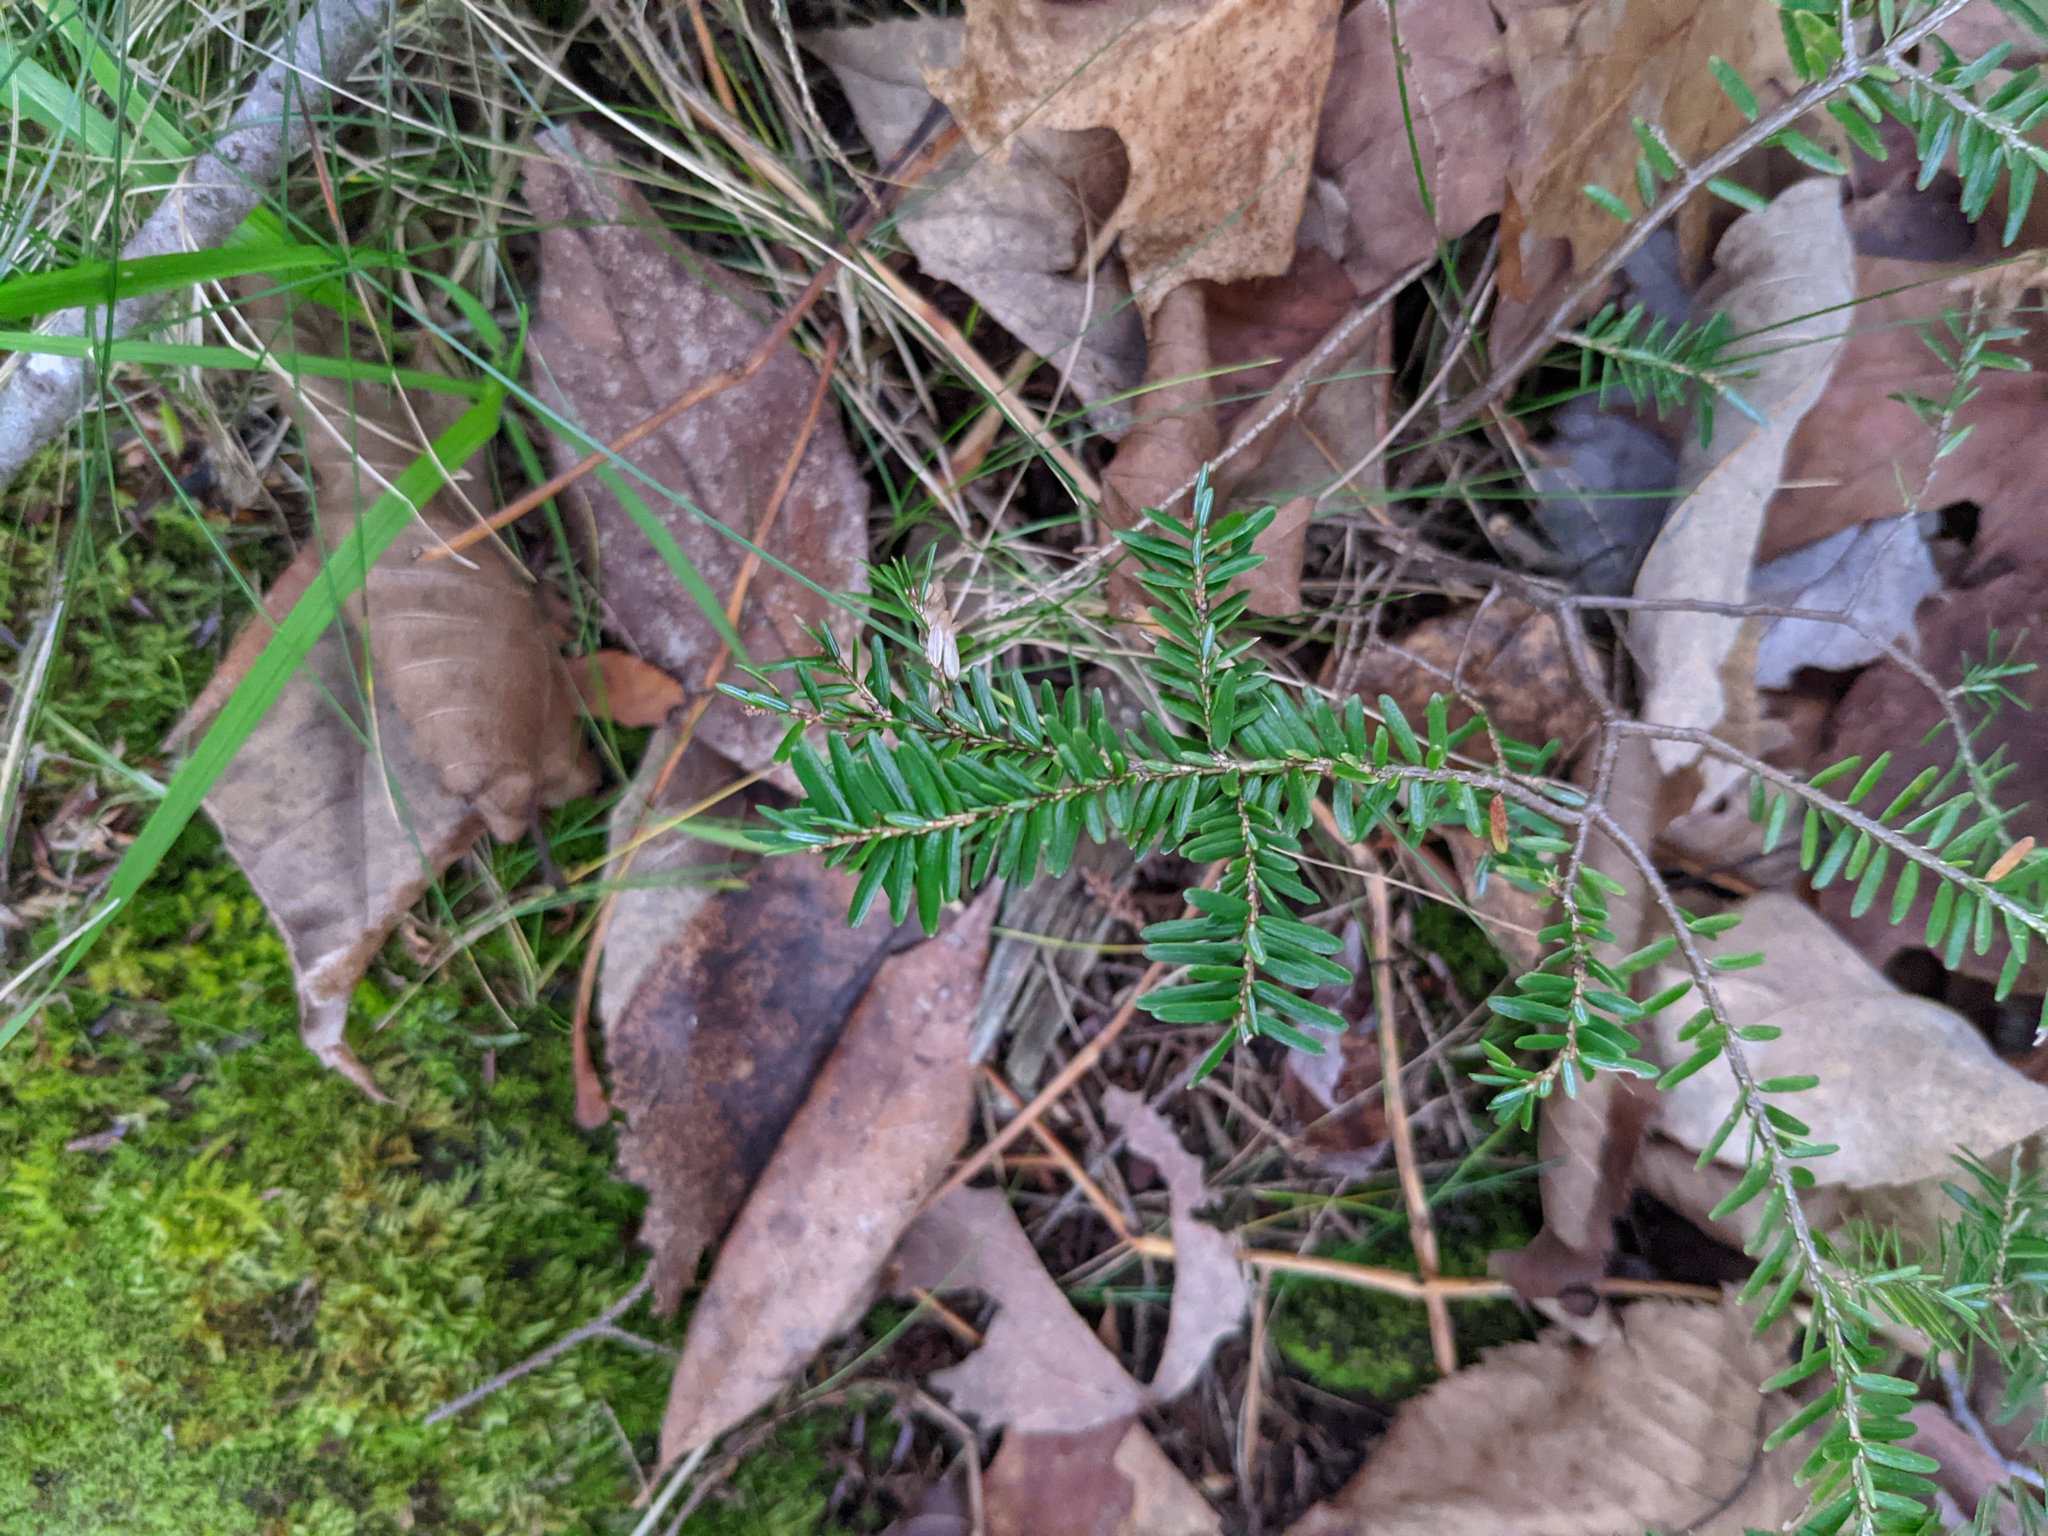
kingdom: Plantae
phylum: Tracheophyta
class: Pinopsida
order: Pinales
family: Pinaceae
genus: Tsuga
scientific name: Tsuga canadensis
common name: Eastern hemlock
